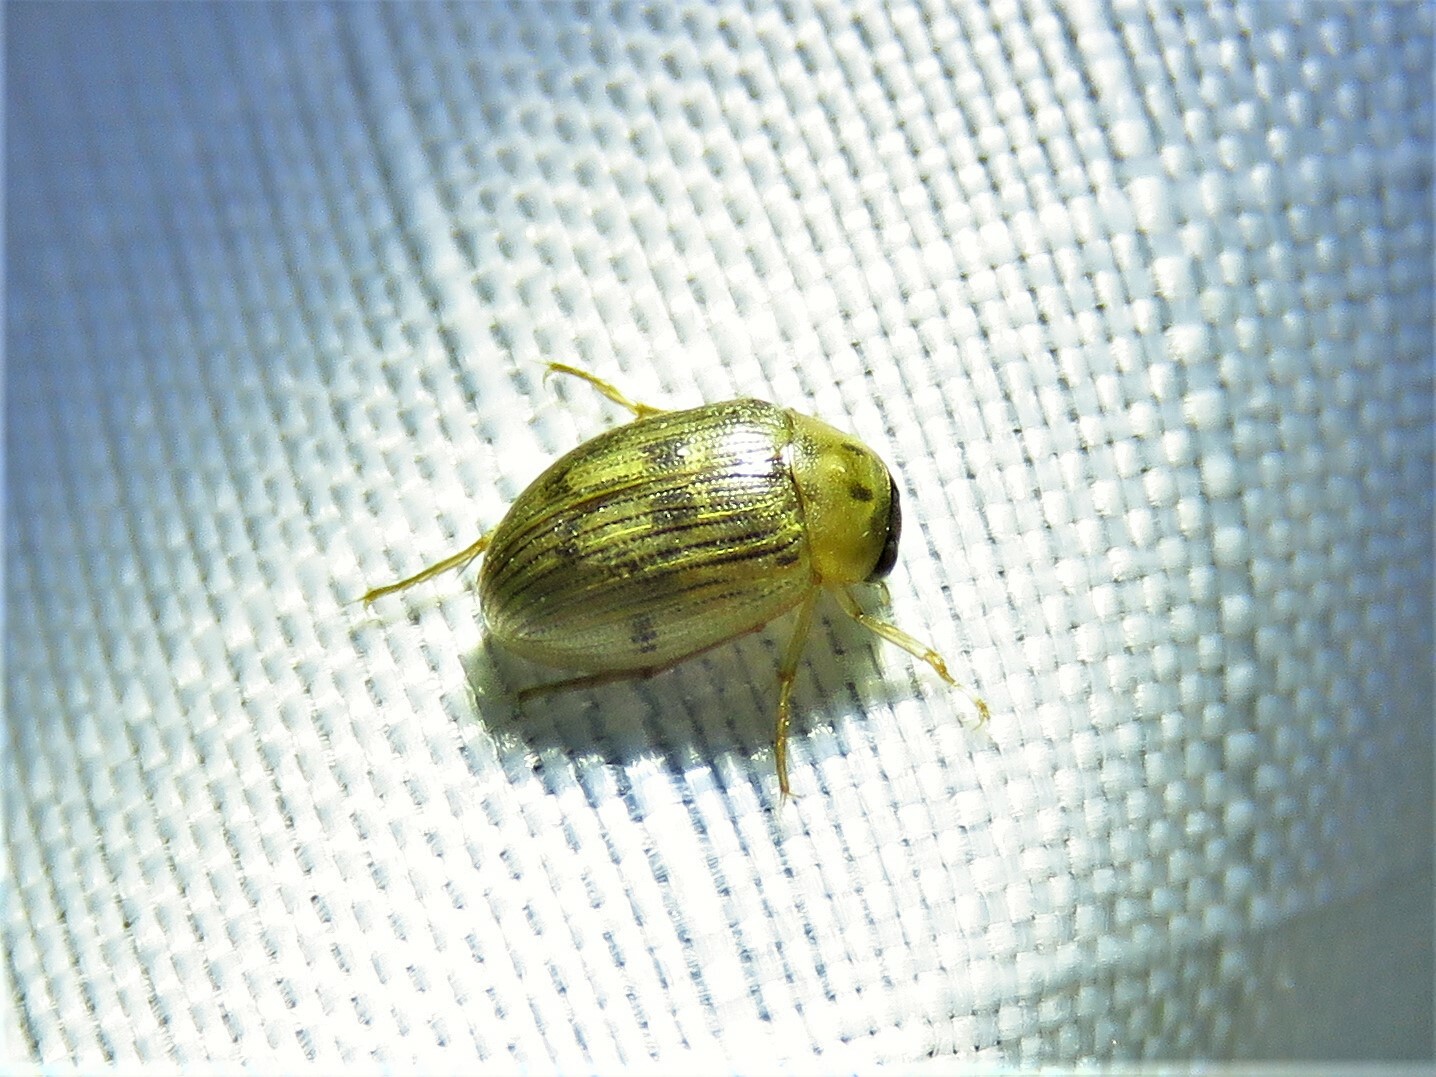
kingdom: Animalia
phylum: Arthropoda
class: Insecta
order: Coleoptera
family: Hydrophilidae
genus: Berosus
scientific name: Berosus
